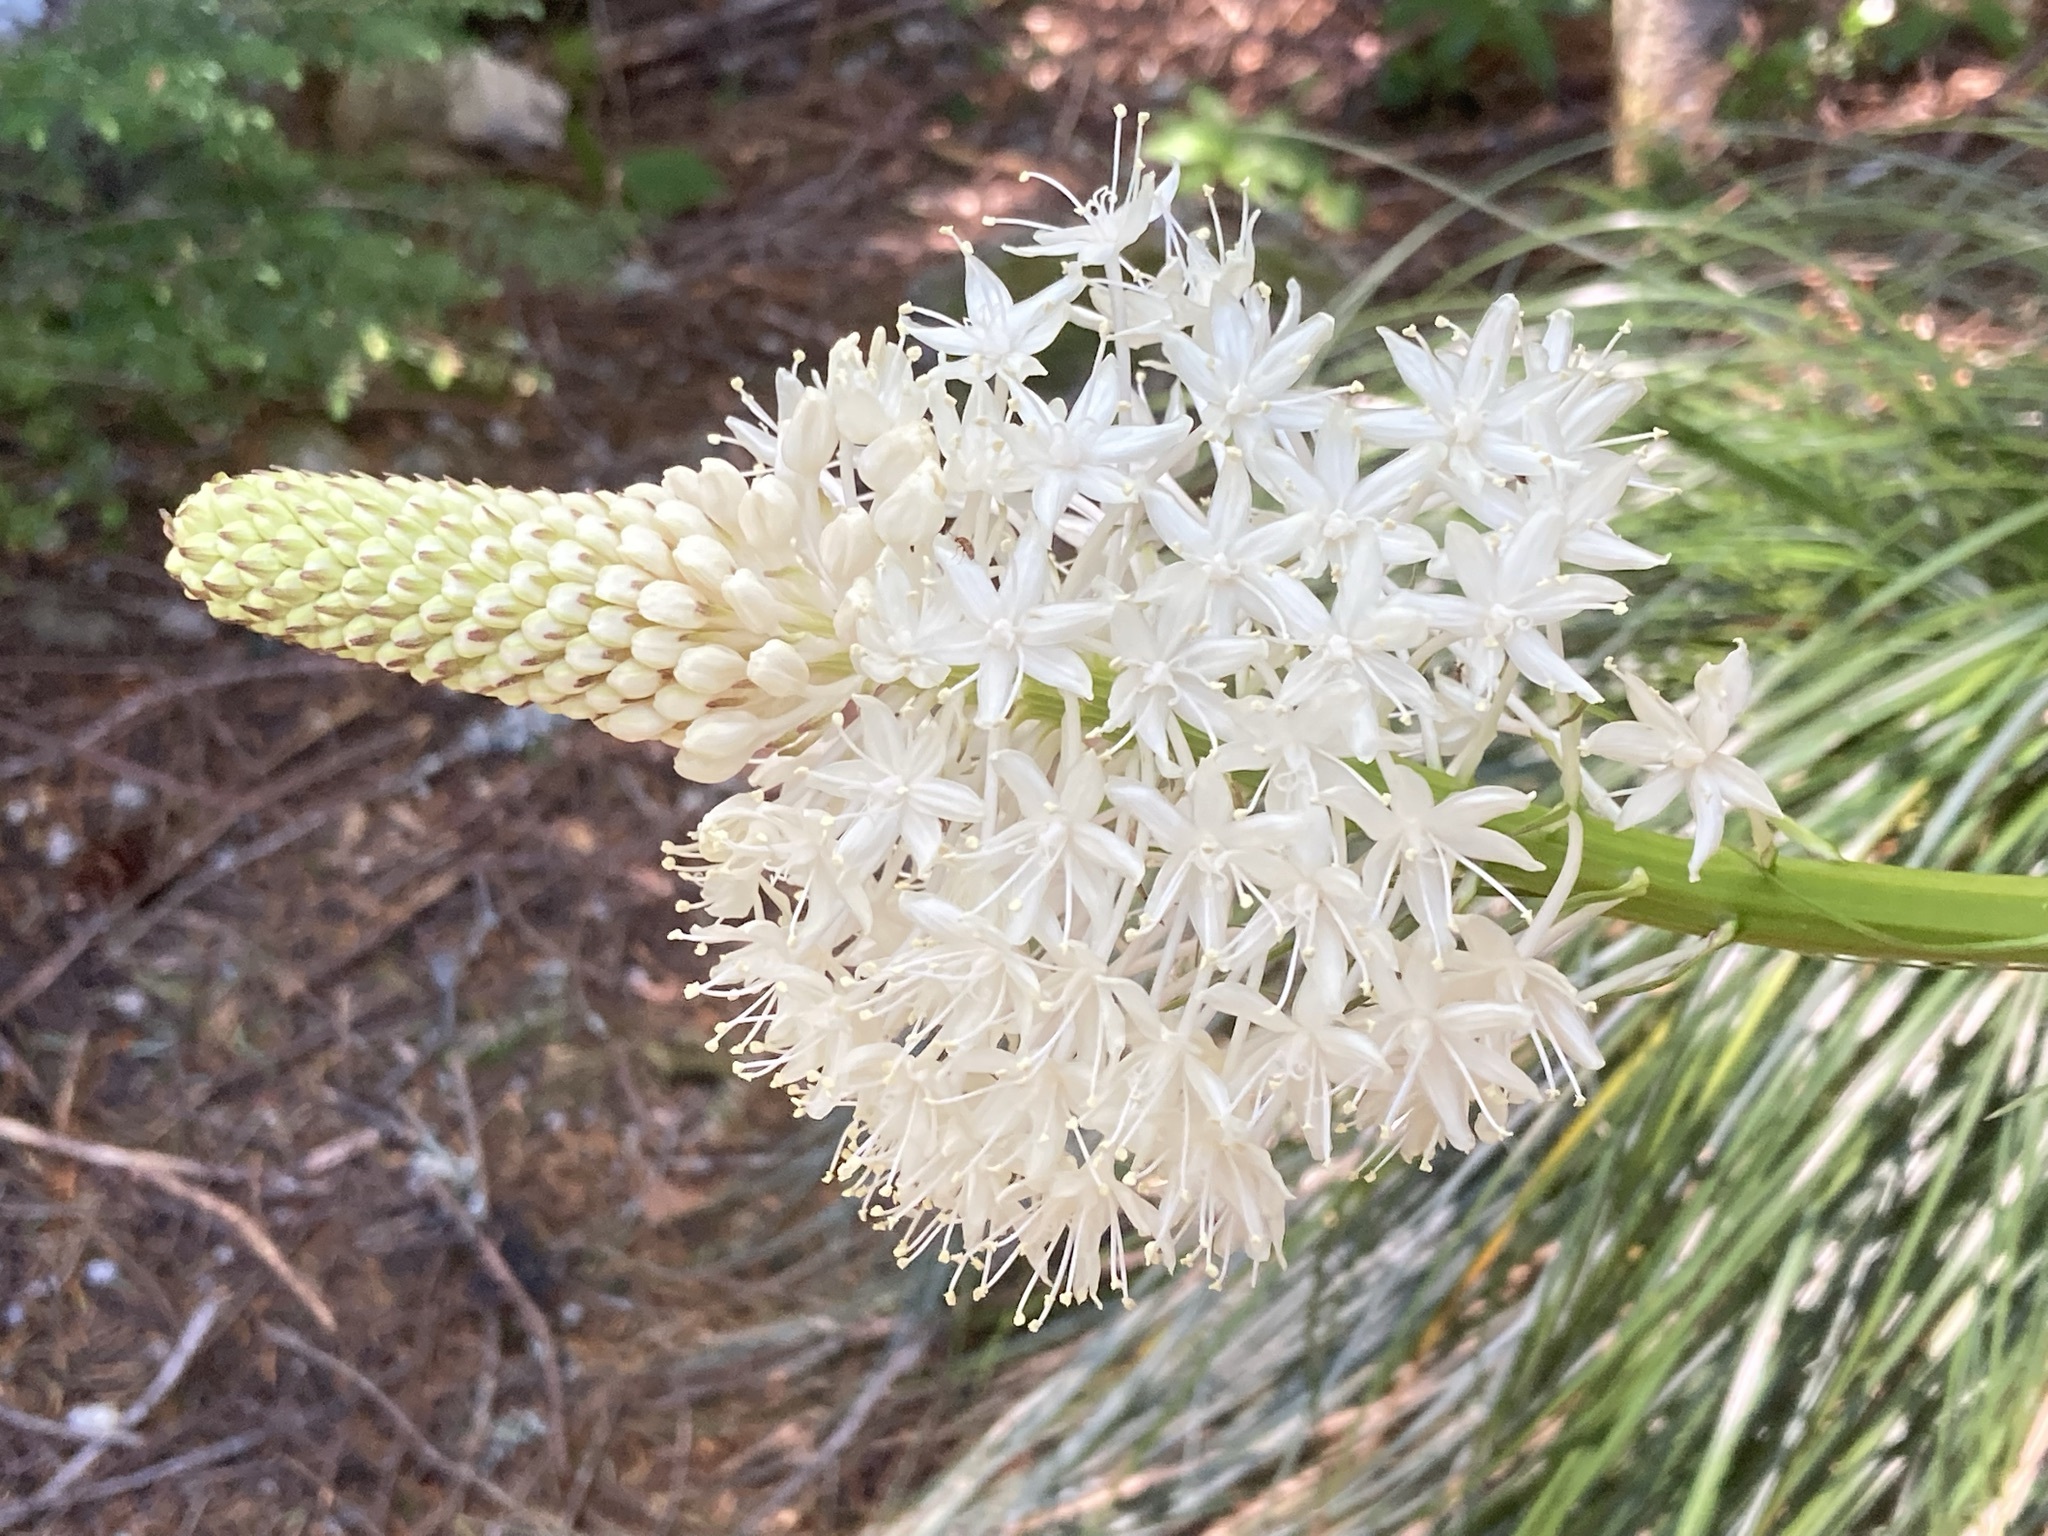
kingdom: Plantae
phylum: Tracheophyta
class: Liliopsida
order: Liliales
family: Melanthiaceae
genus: Xerophyllum
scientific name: Xerophyllum tenax
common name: Bear-grass
